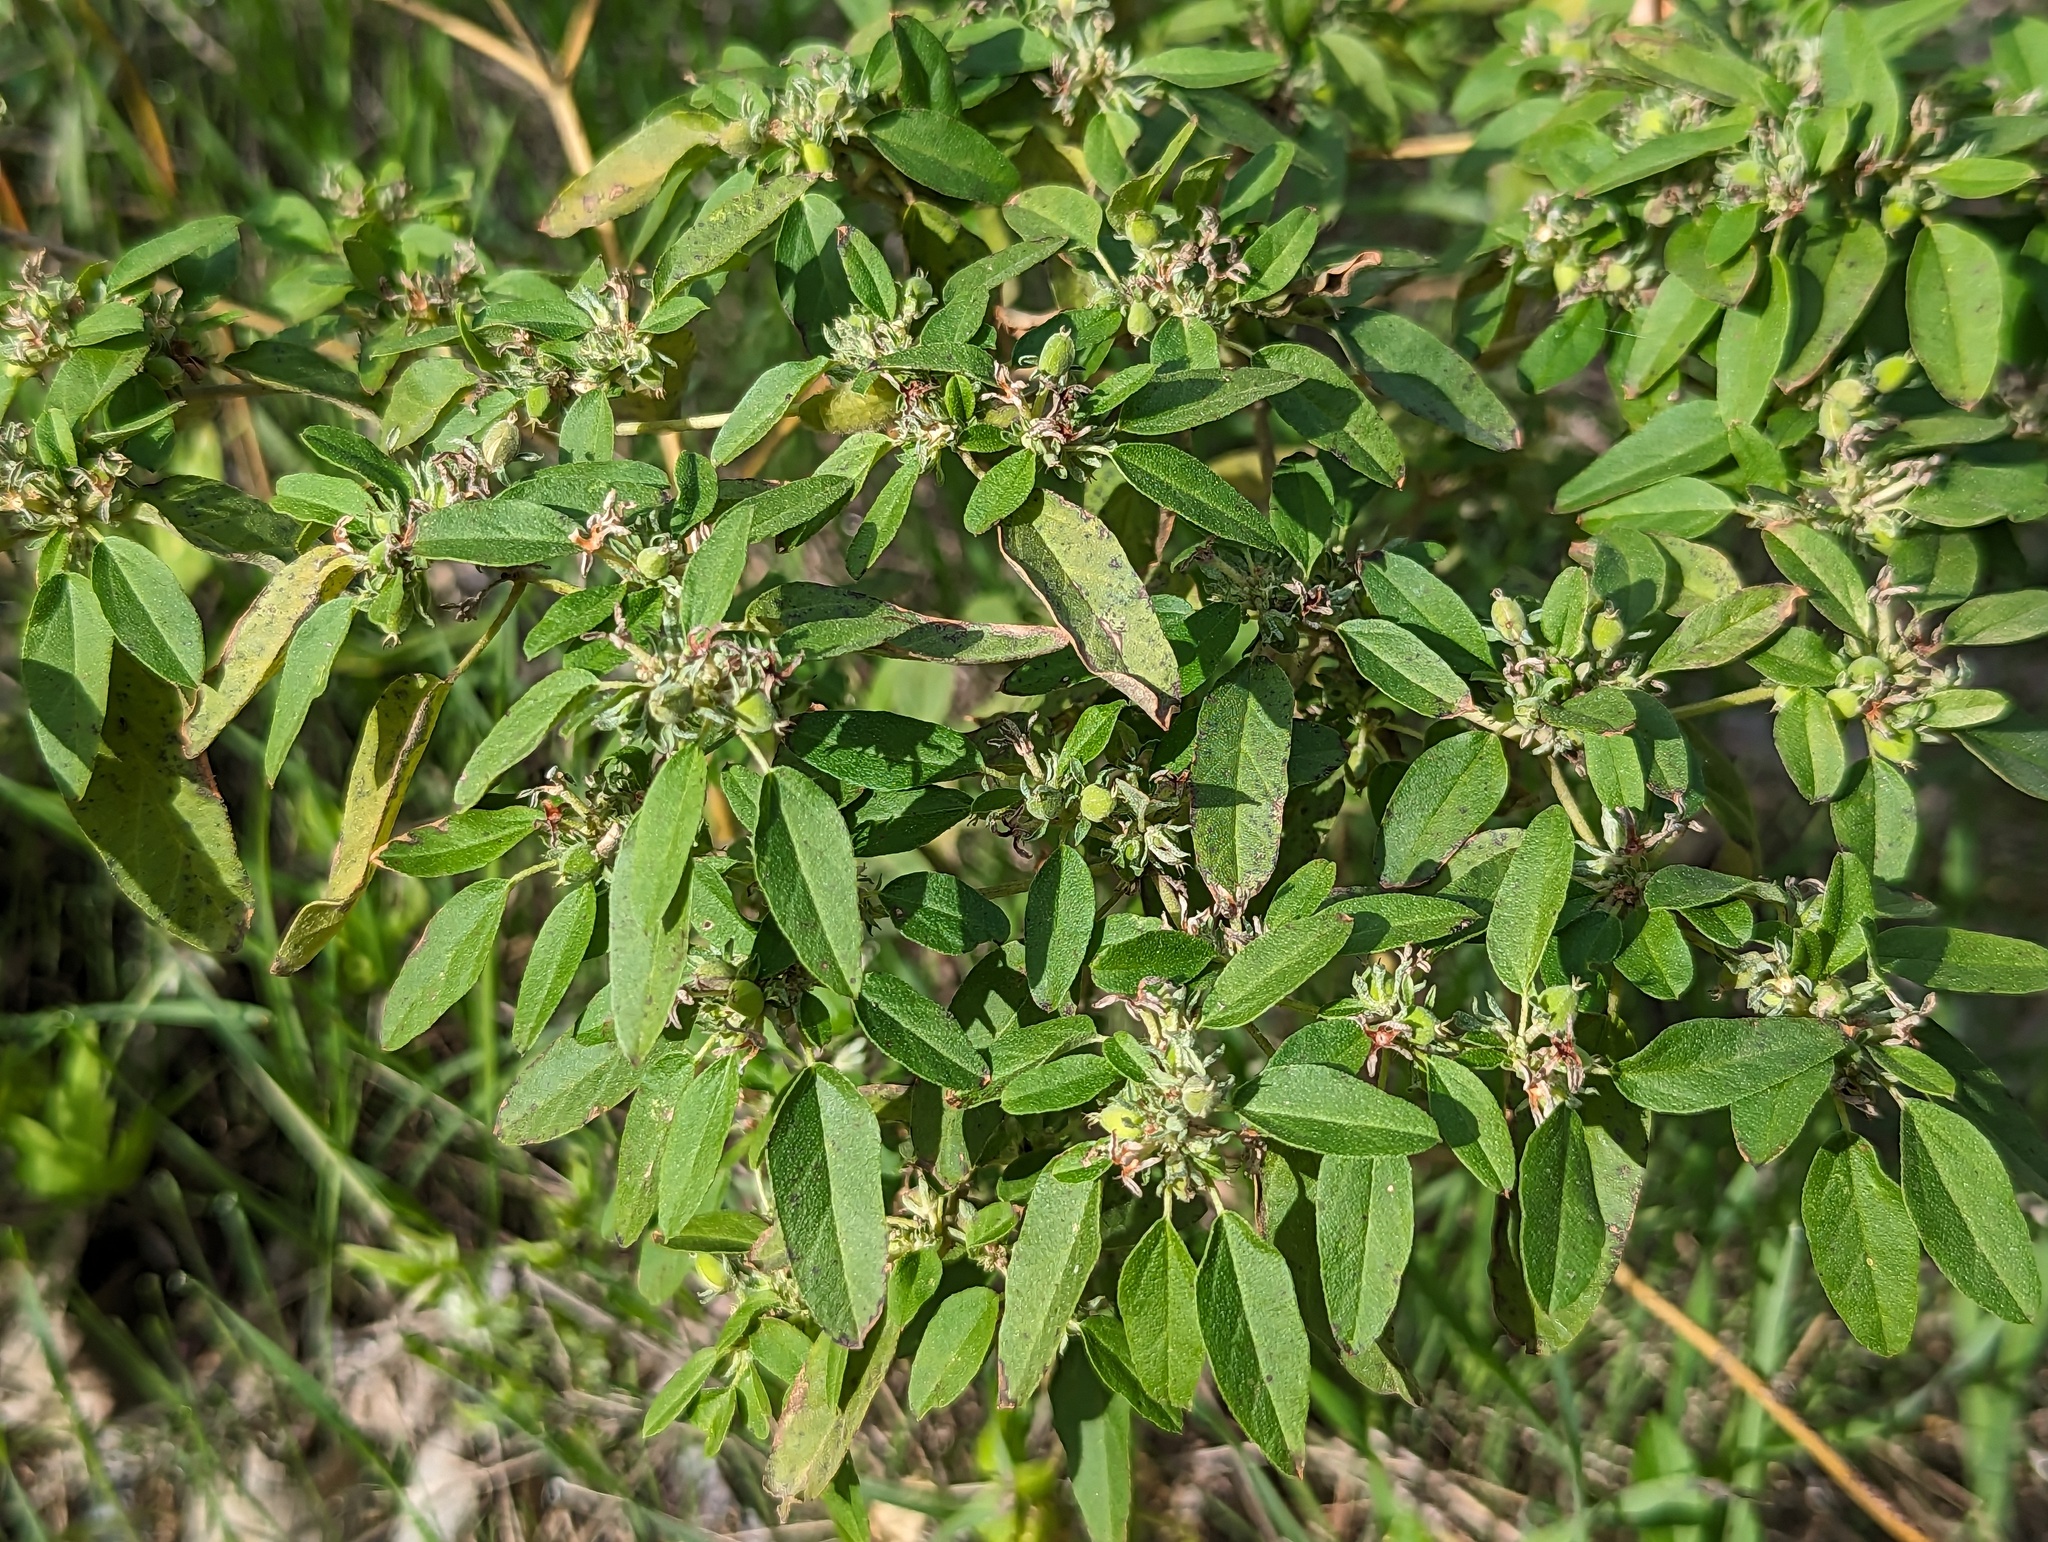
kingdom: Plantae
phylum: Tracheophyta
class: Magnoliopsida
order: Malpighiales
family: Euphorbiaceae
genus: Croton
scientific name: Croton monanthogynus
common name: One-seed croton
